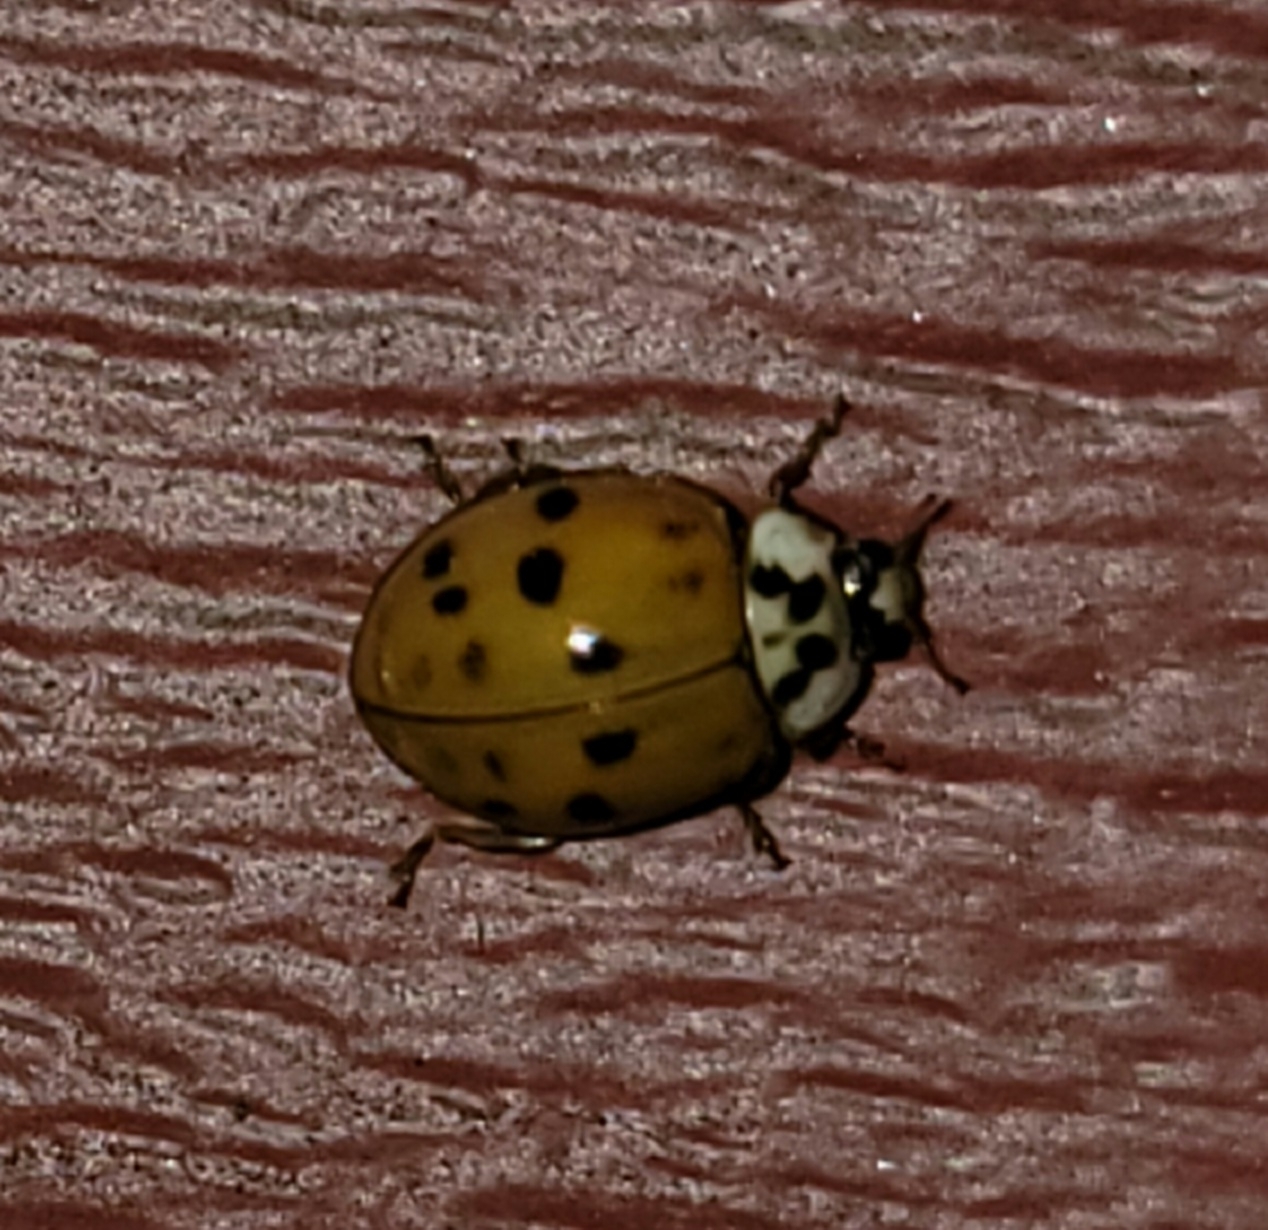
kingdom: Animalia
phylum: Arthropoda
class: Insecta
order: Coleoptera
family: Coccinellidae
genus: Harmonia
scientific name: Harmonia axyridis
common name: Harlequin ladybird
